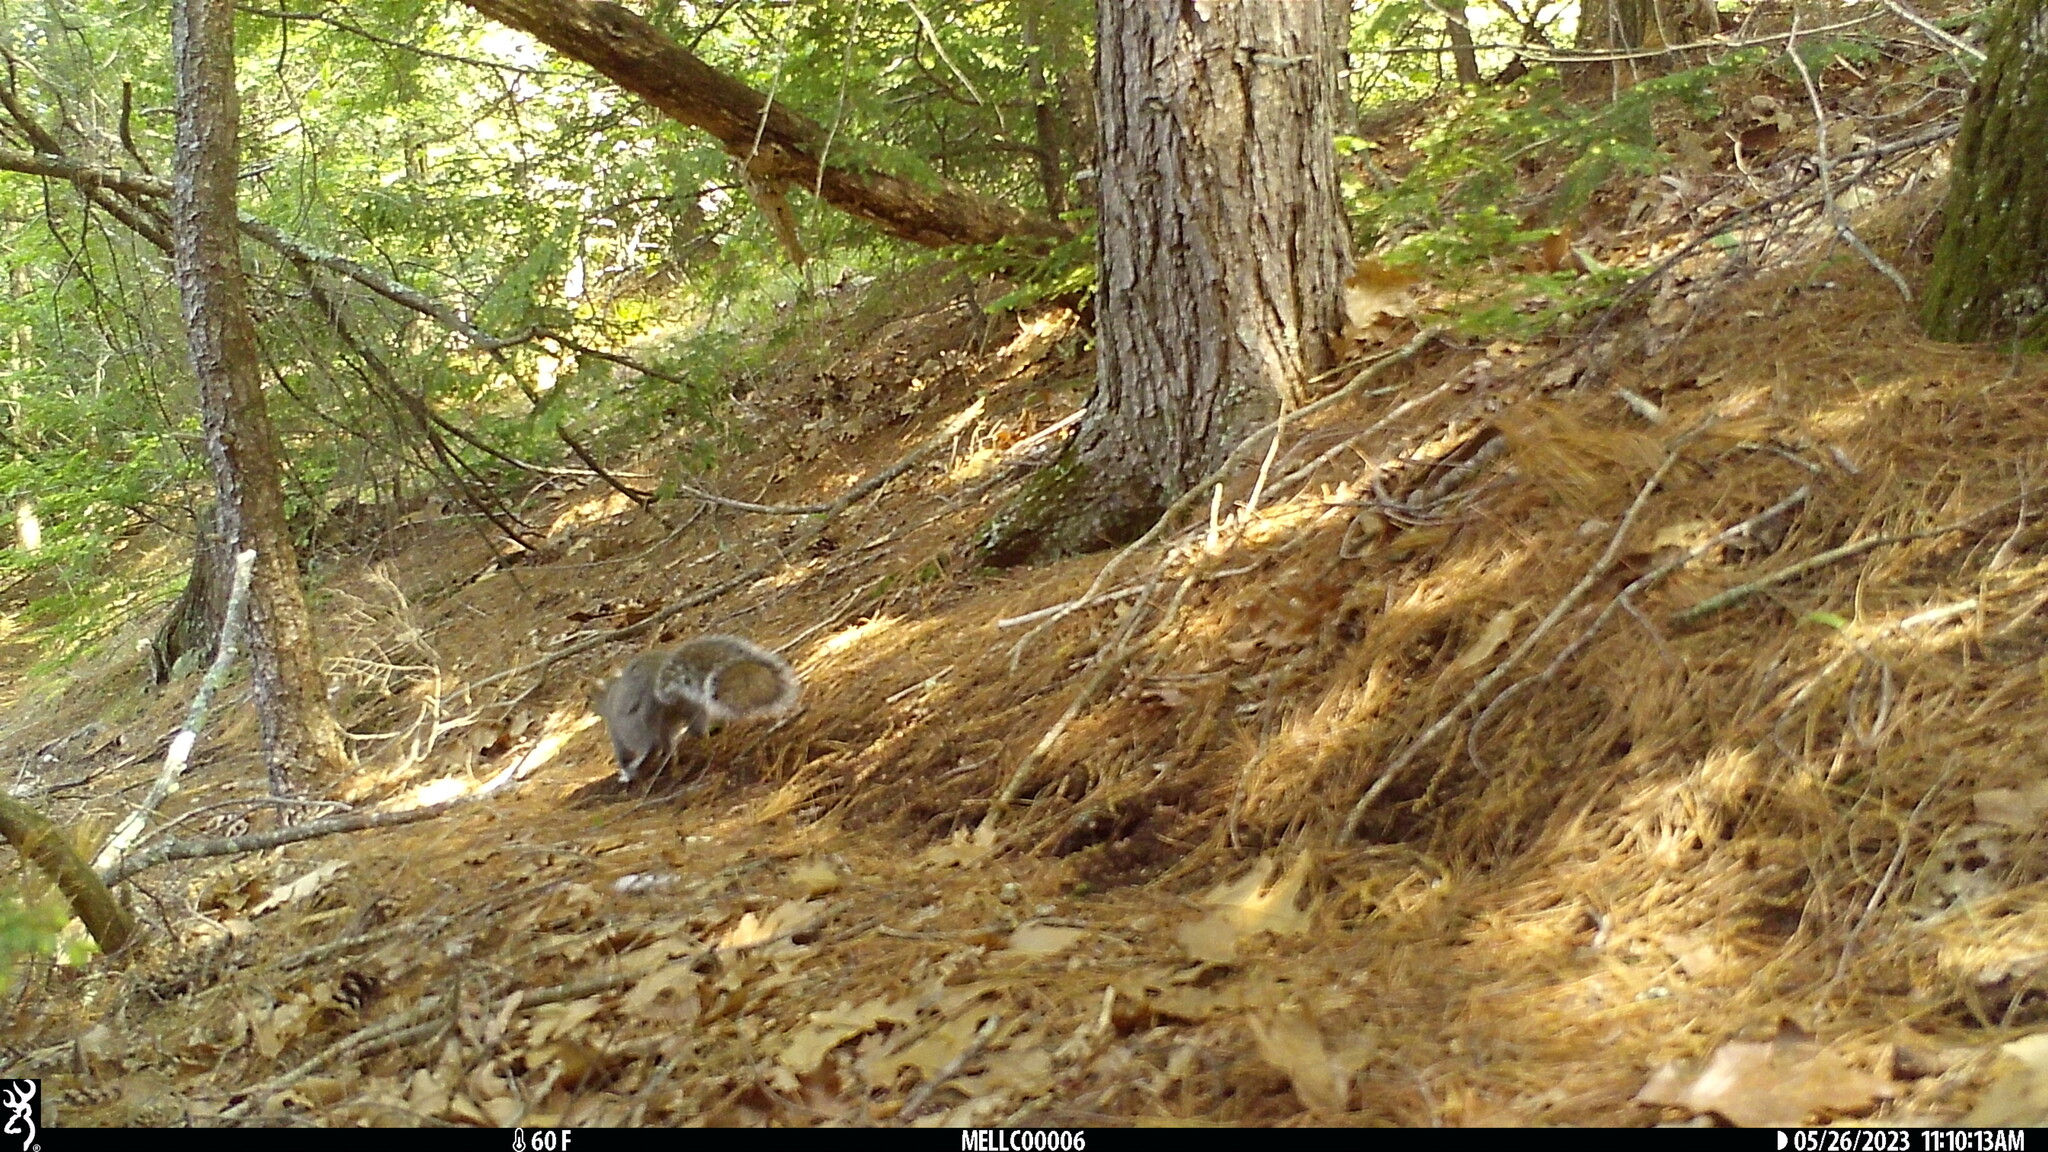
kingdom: Animalia
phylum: Chordata
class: Mammalia
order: Rodentia
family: Sciuridae
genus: Sciurus
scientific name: Sciurus carolinensis
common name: Eastern gray squirrel
